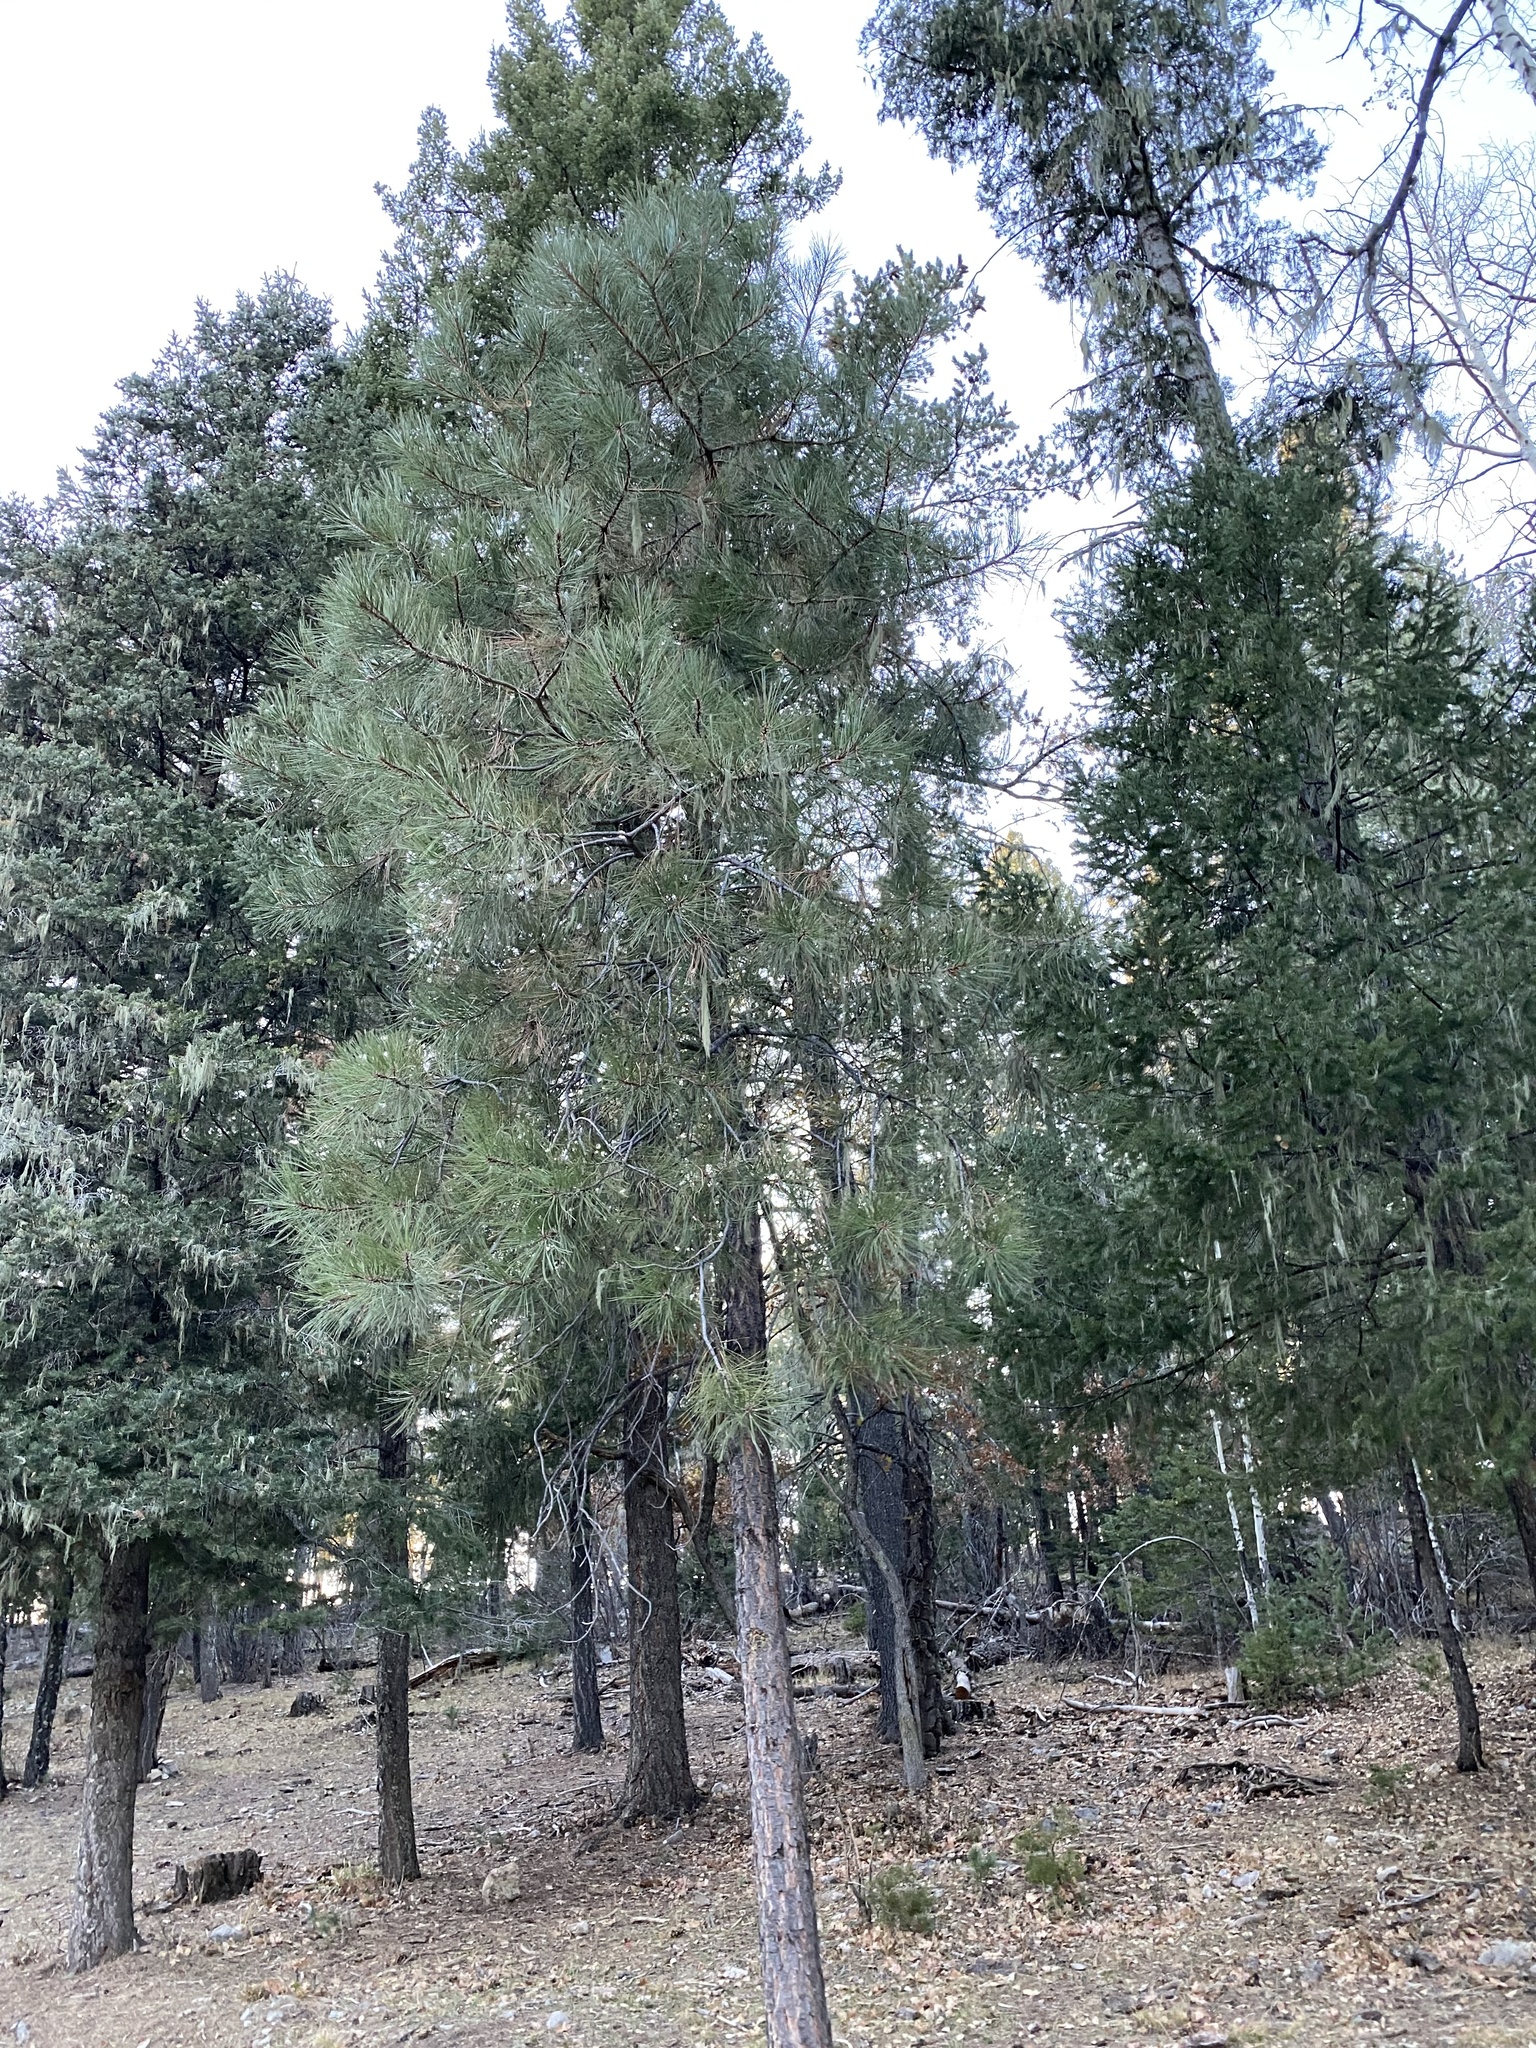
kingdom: Plantae
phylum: Tracheophyta
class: Pinopsida
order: Pinales
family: Pinaceae
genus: Pinus
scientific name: Pinus ponderosa
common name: Western yellow-pine
